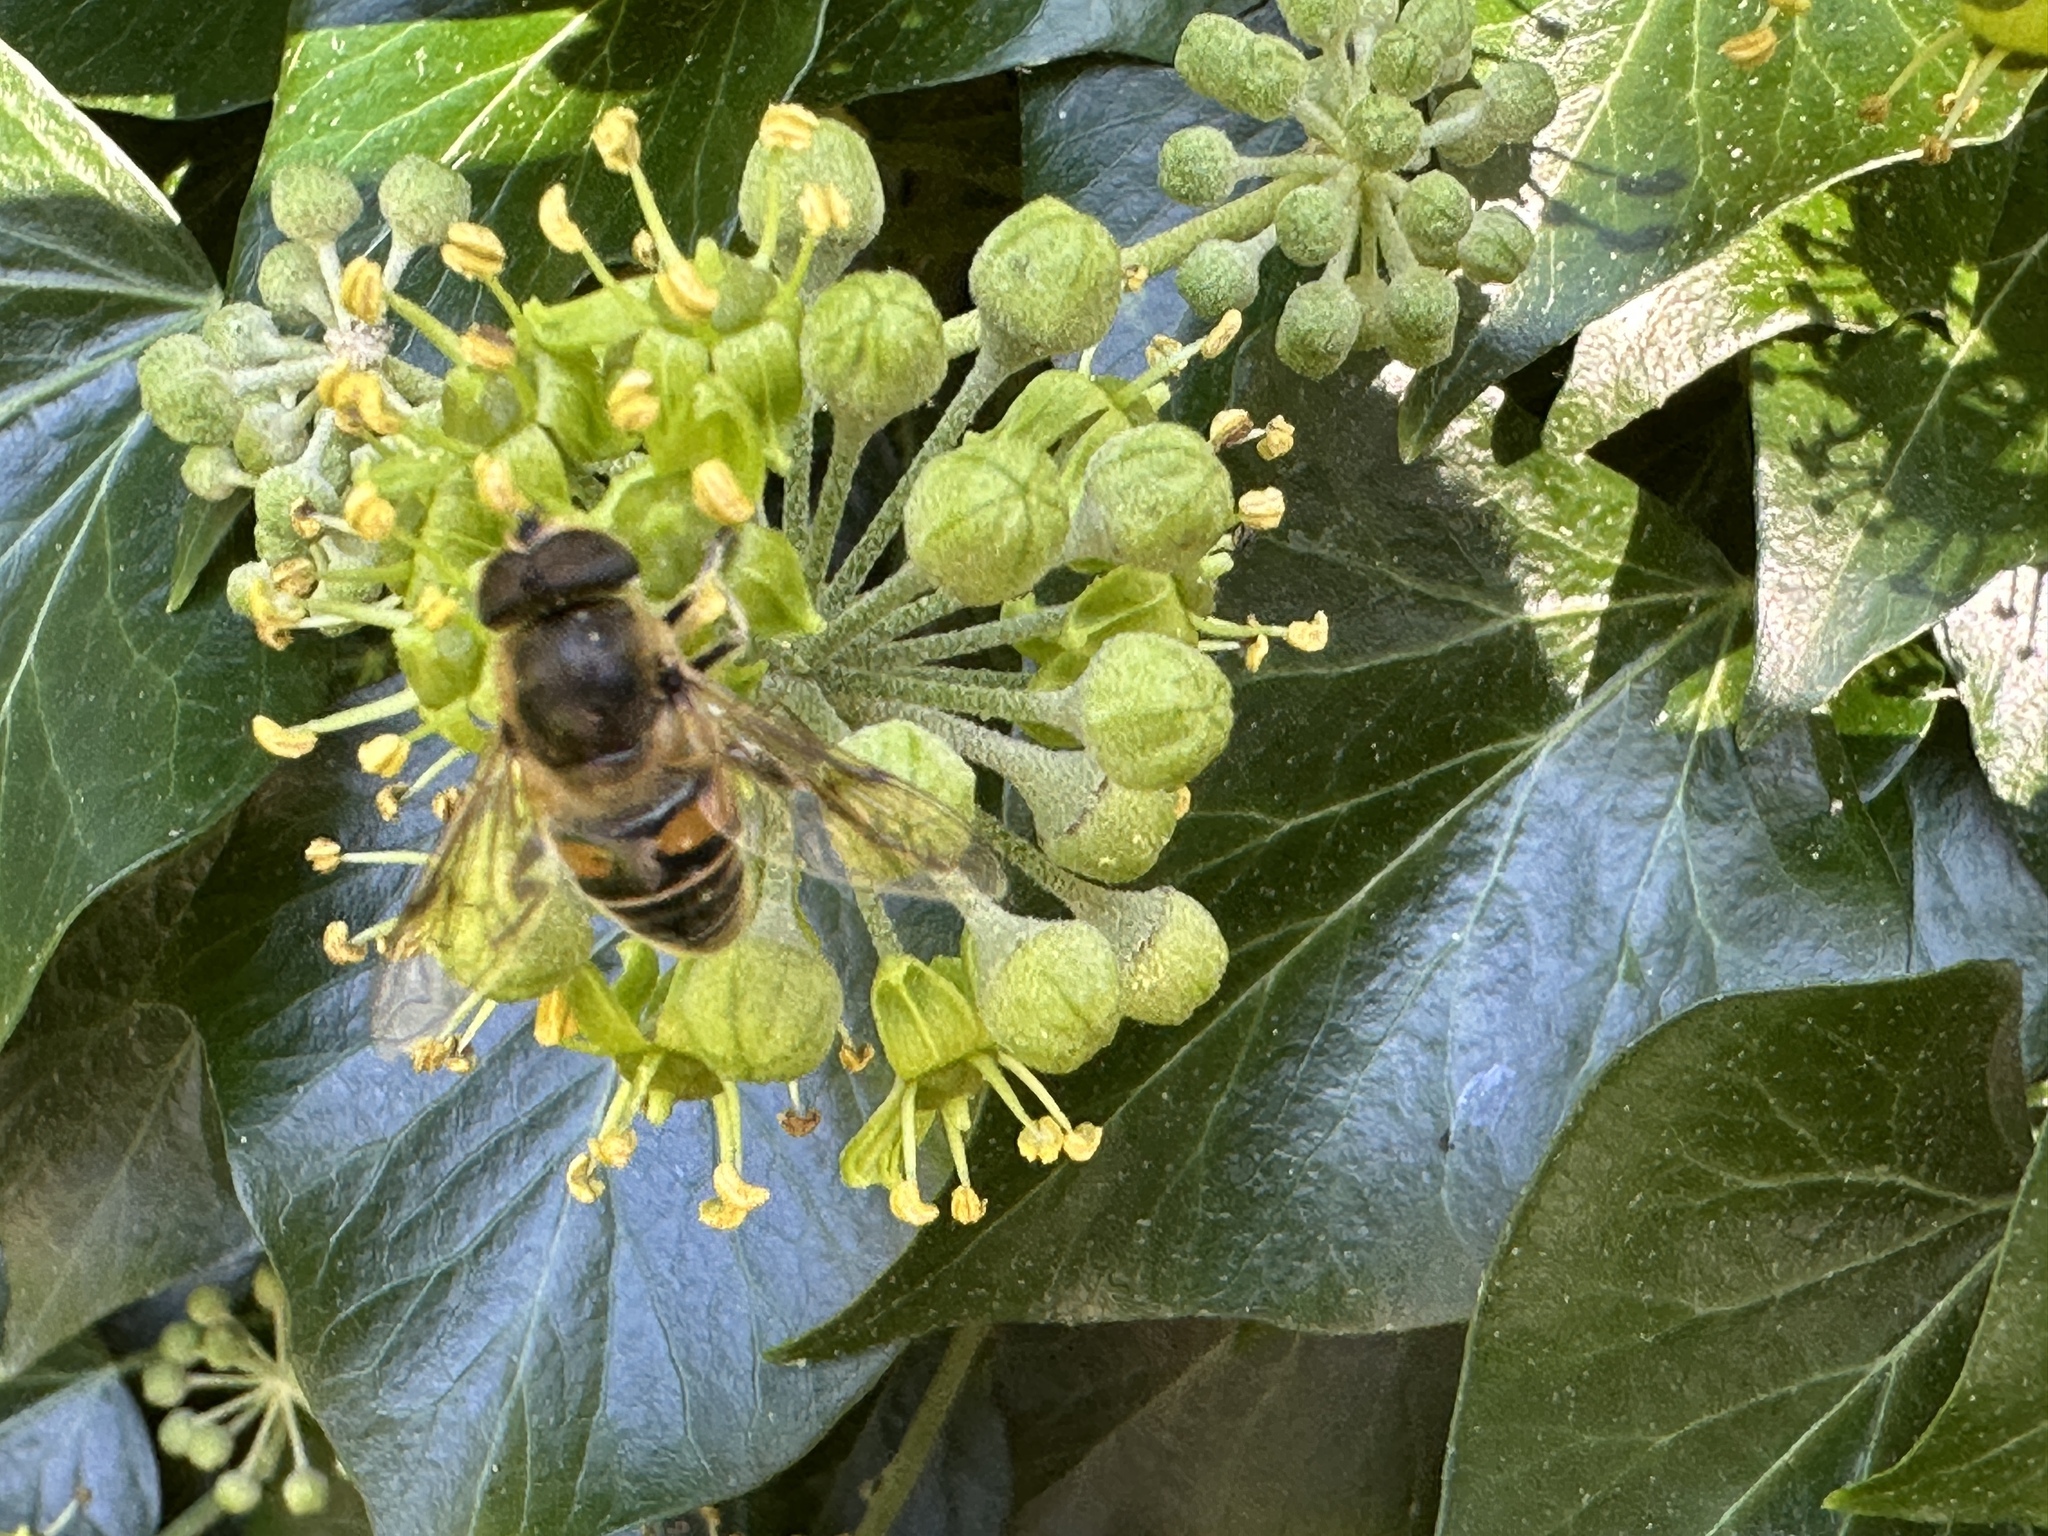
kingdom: Animalia
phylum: Arthropoda
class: Insecta
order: Diptera
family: Syrphidae
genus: Eristalis
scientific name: Eristalis tenax
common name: Drone fly
